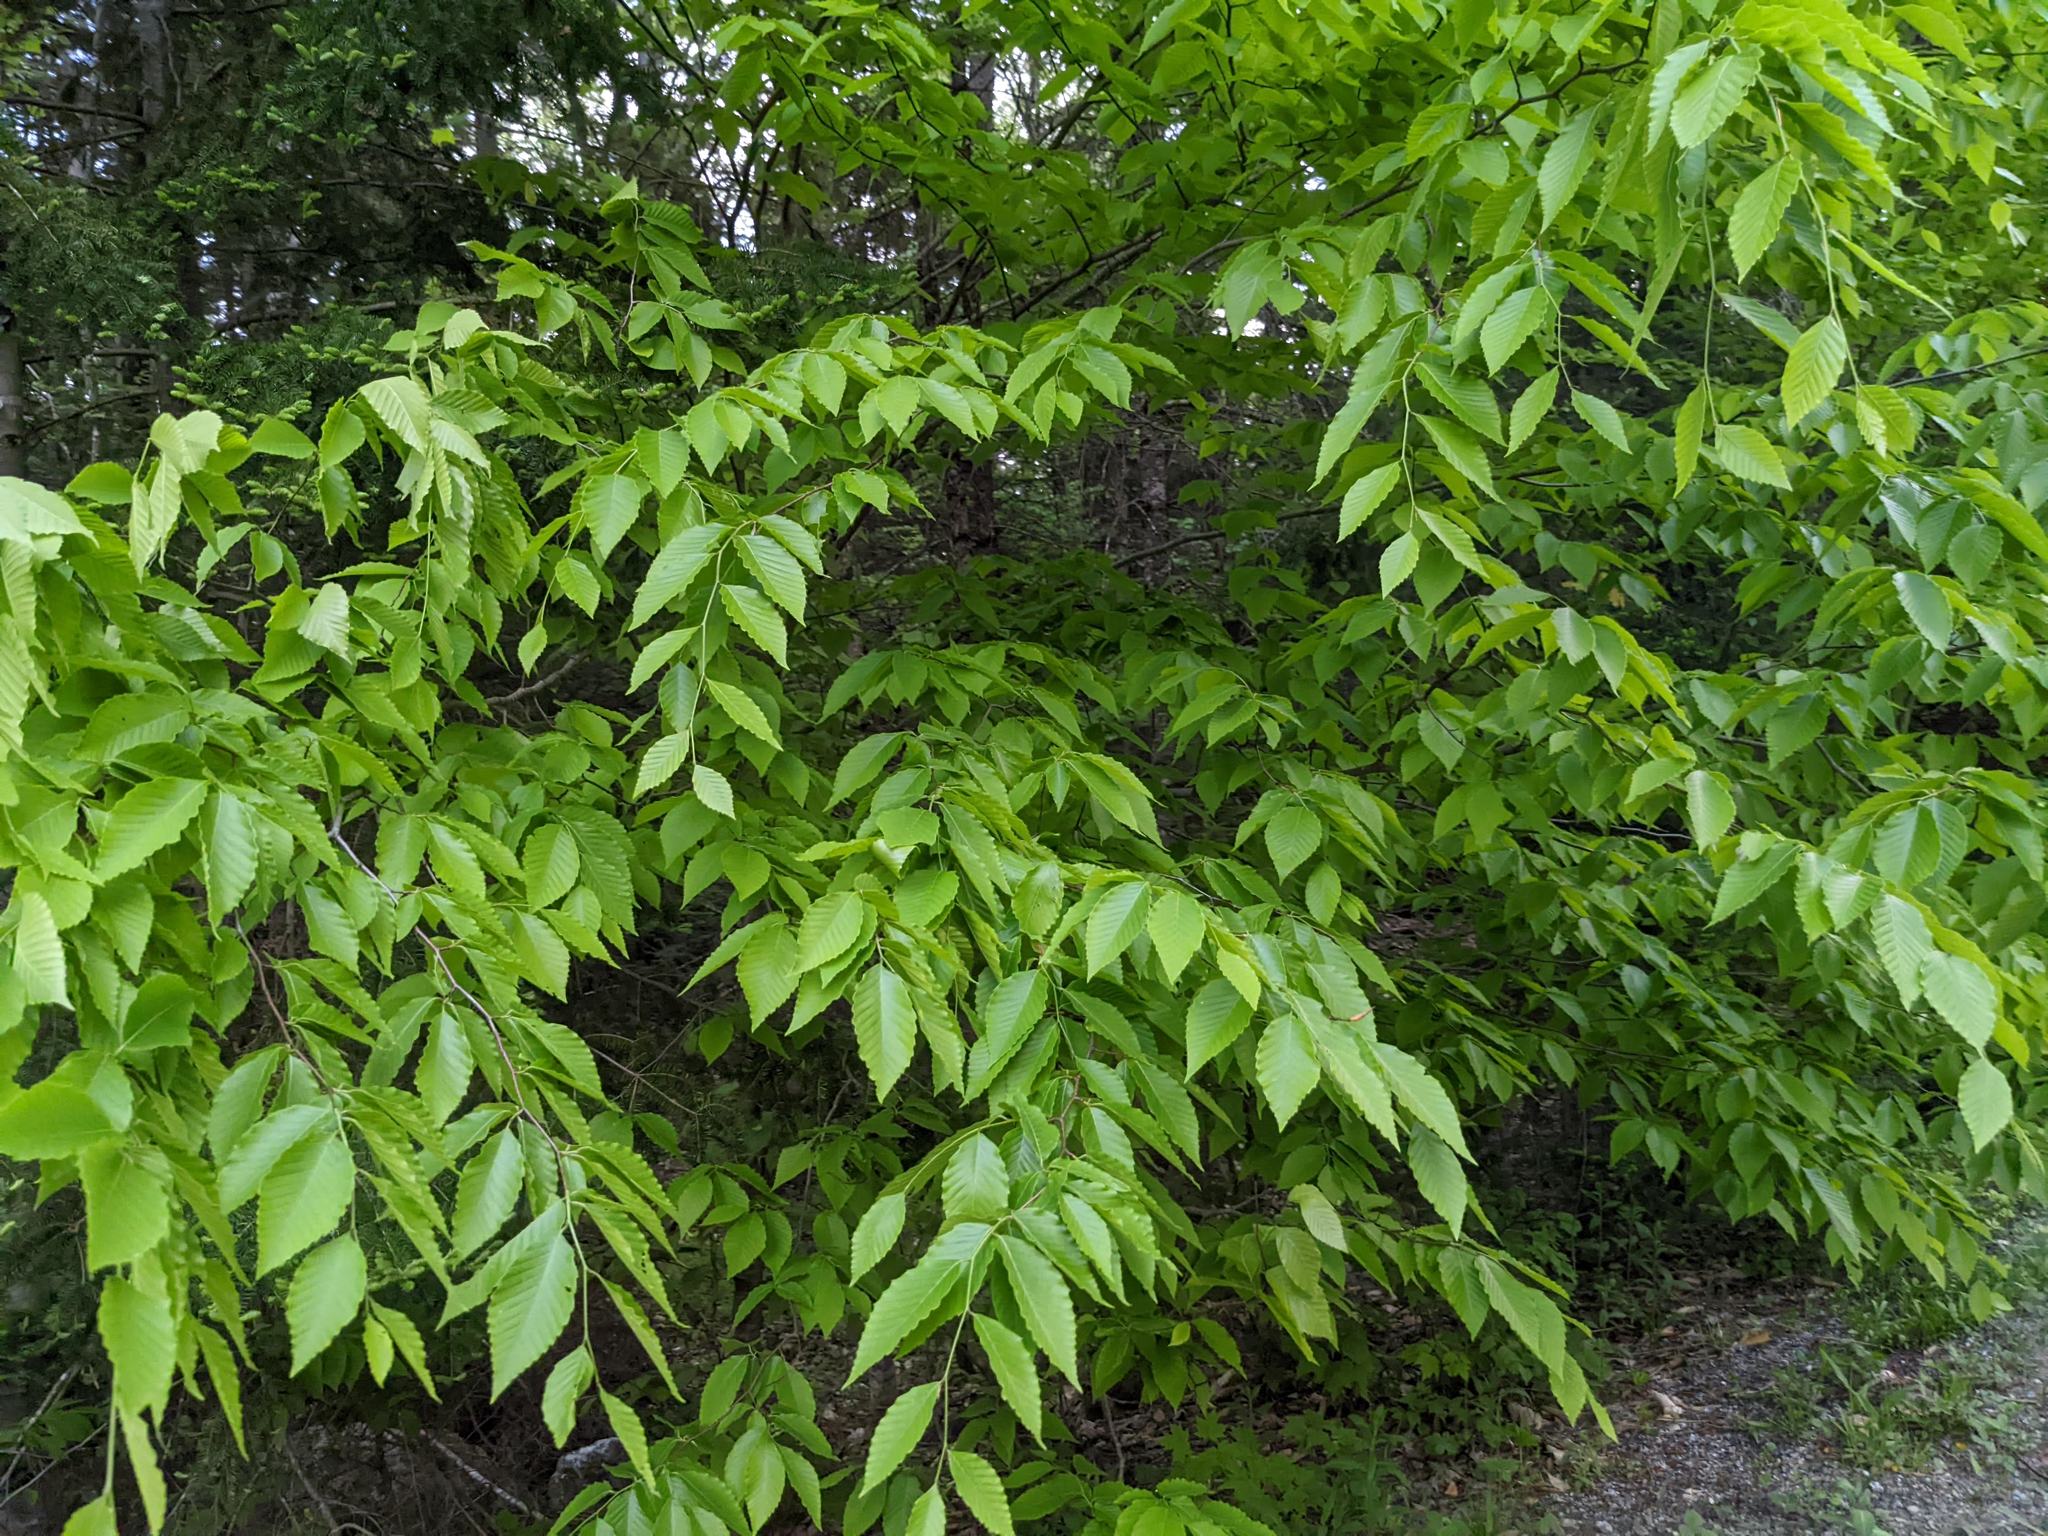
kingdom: Plantae
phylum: Tracheophyta
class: Magnoliopsida
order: Fagales
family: Fagaceae
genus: Fagus
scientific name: Fagus grandifolia
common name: American beech
